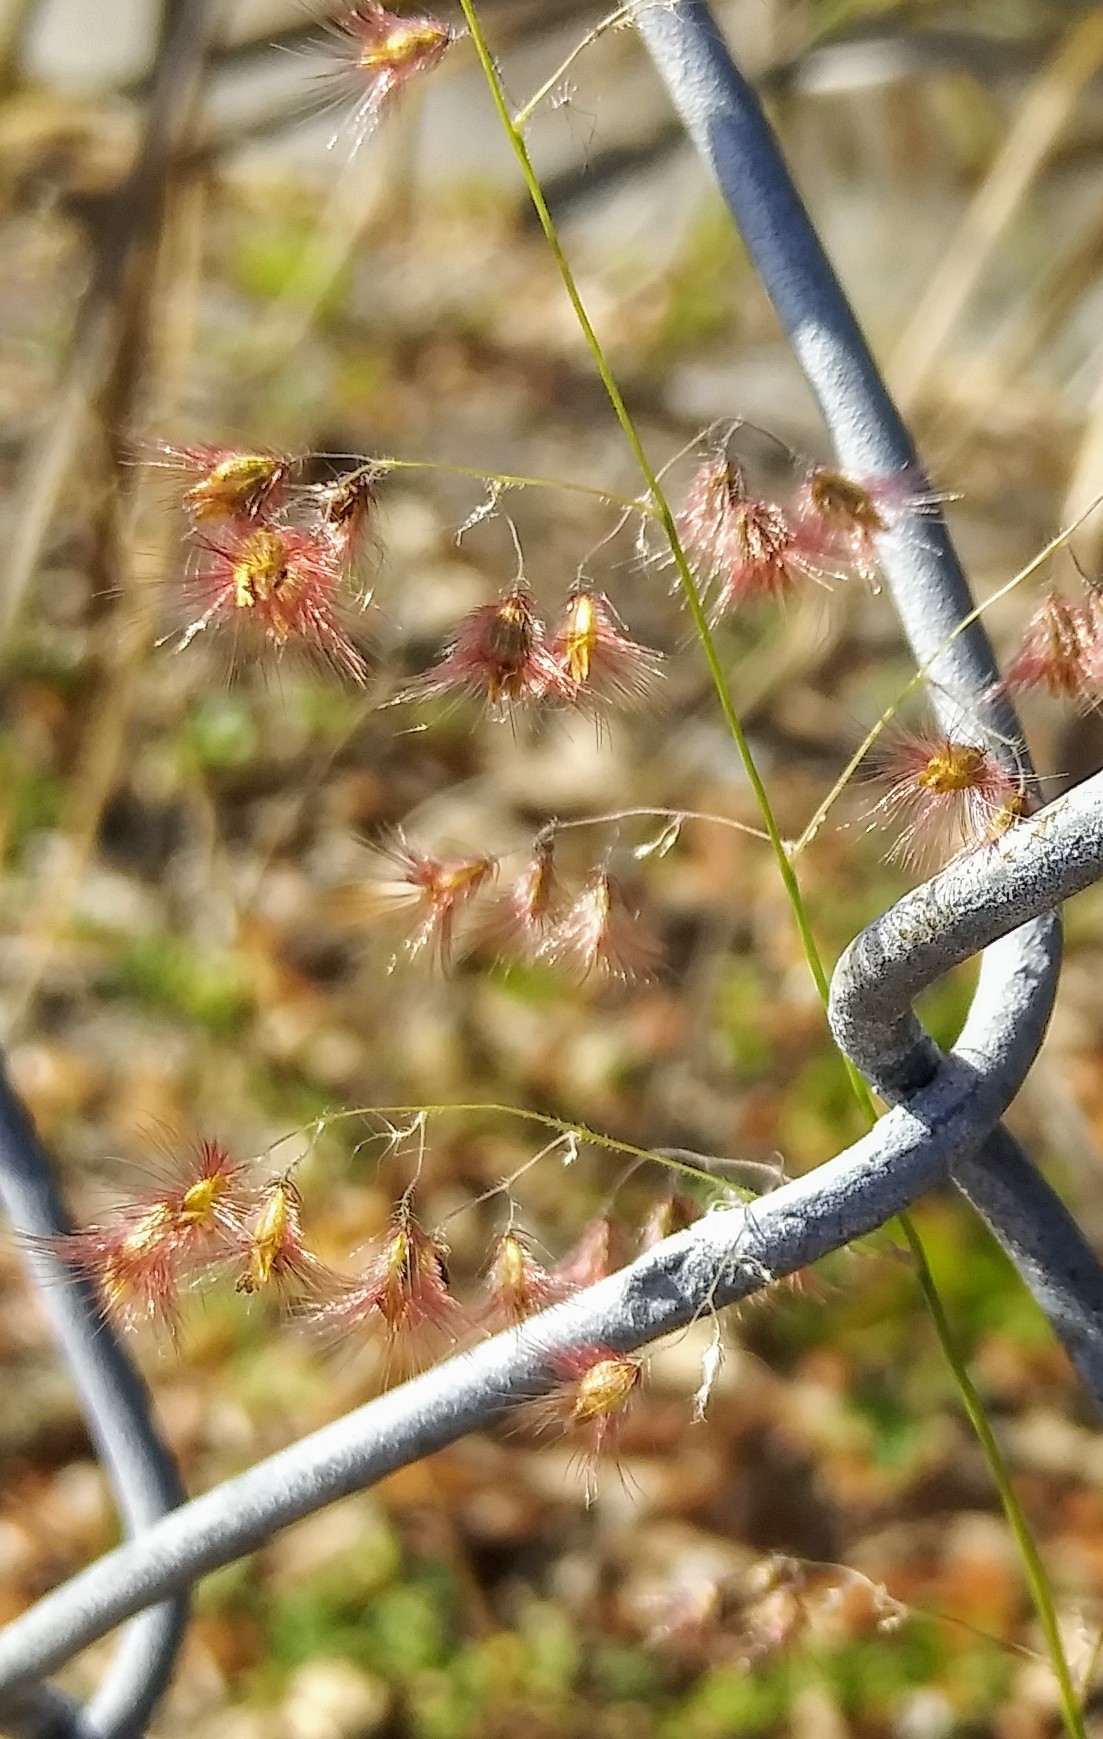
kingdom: Plantae
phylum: Tracheophyta
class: Liliopsida
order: Poales
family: Poaceae
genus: Melinis
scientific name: Melinis repens
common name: Rose natal grass
